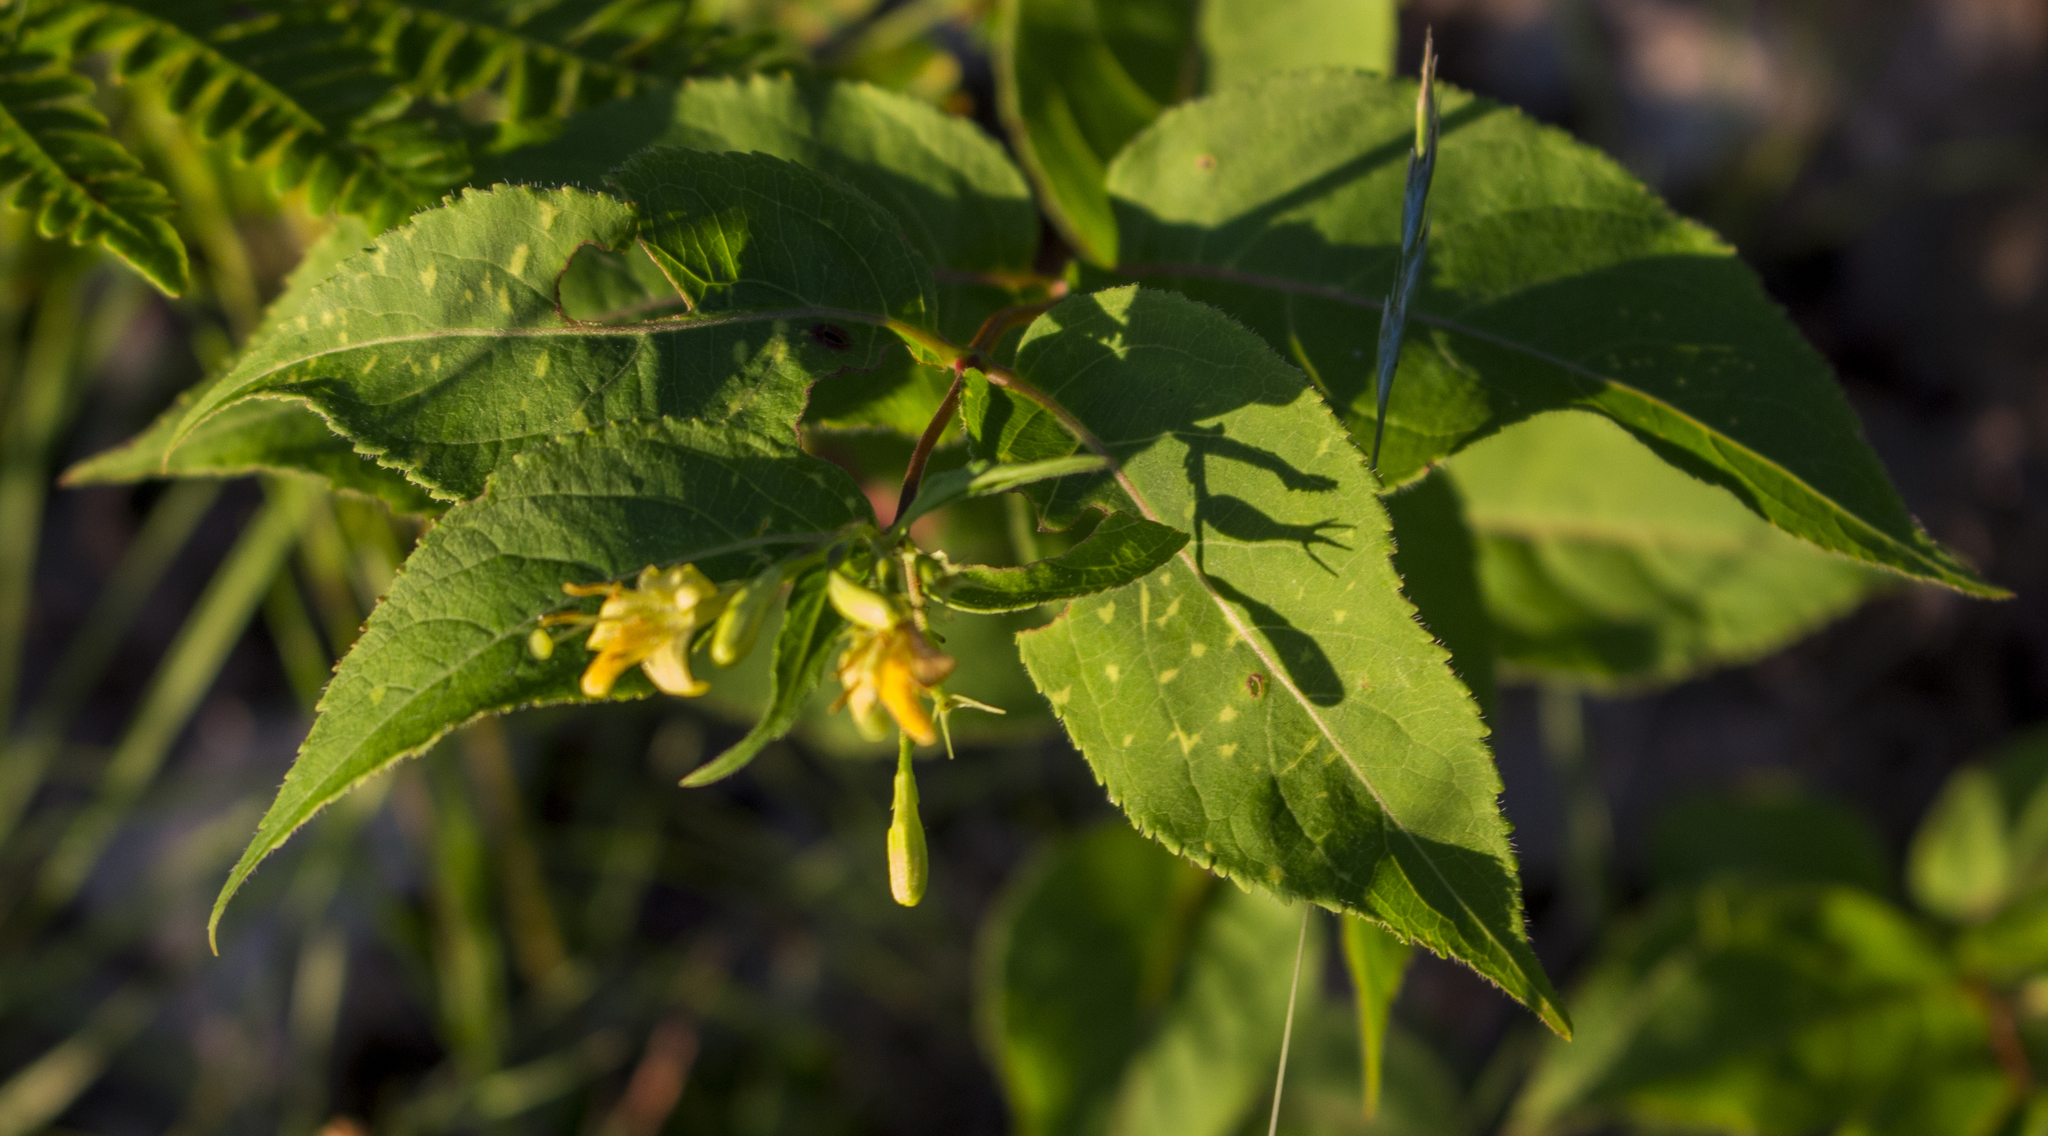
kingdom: Plantae
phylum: Tracheophyta
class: Magnoliopsida
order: Dipsacales
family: Caprifoliaceae
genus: Diervilla
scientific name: Diervilla lonicera
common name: Bush-honeysuckle
